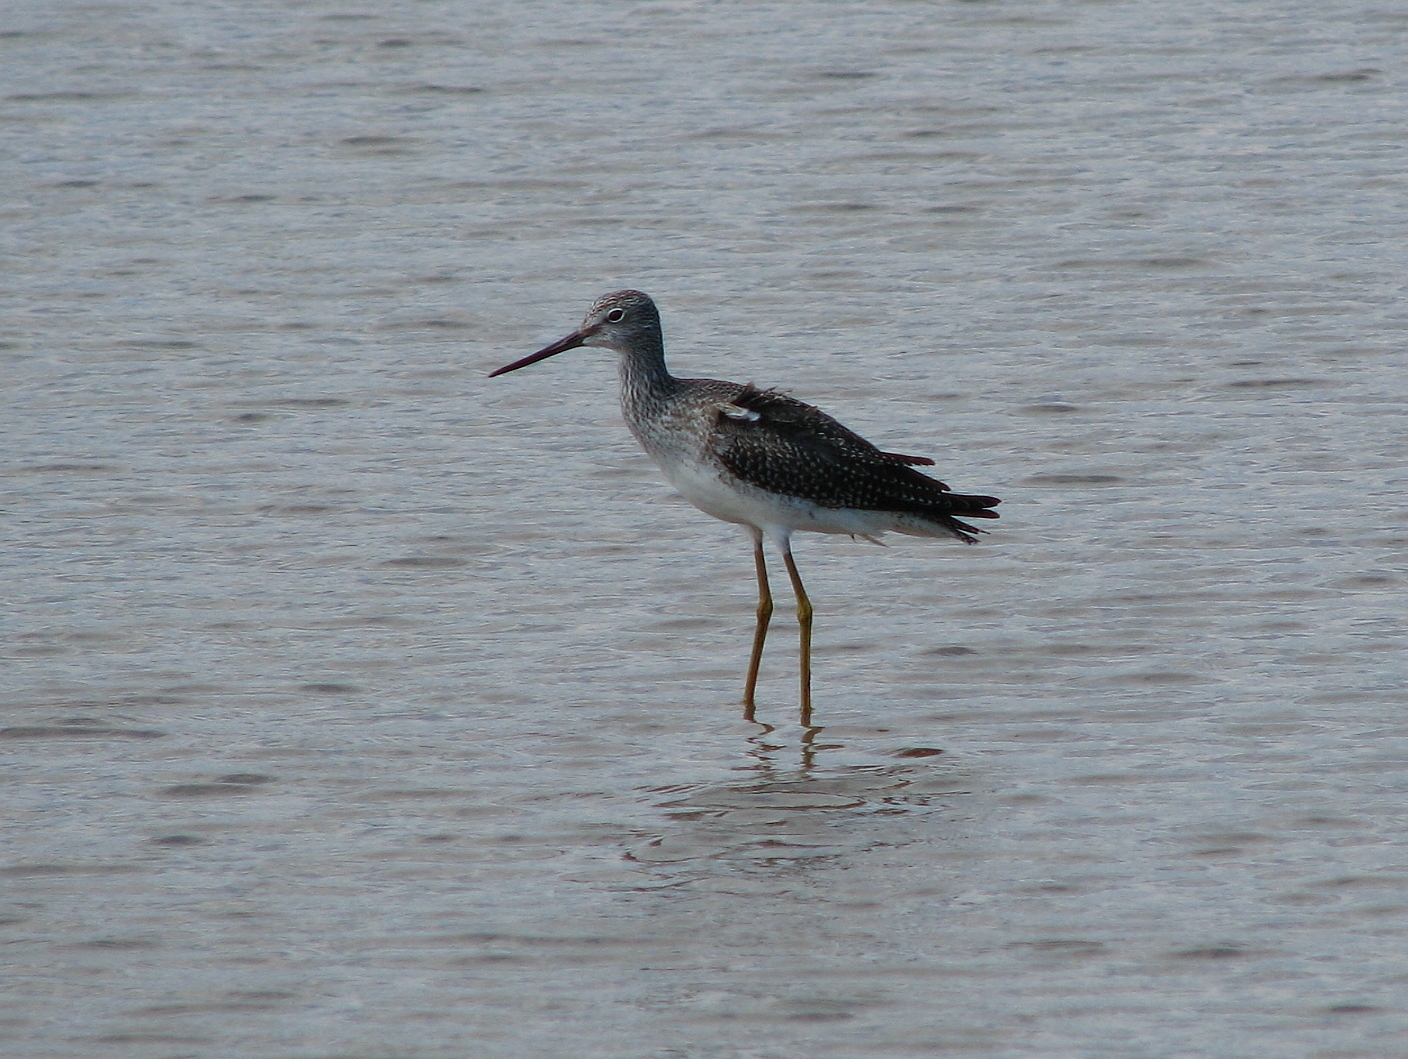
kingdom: Animalia
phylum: Chordata
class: Aves
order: Charadriiformes
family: Scolopacidae
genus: Tringa
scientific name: Tringa melanoleuca
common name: Greater yellowlegs
